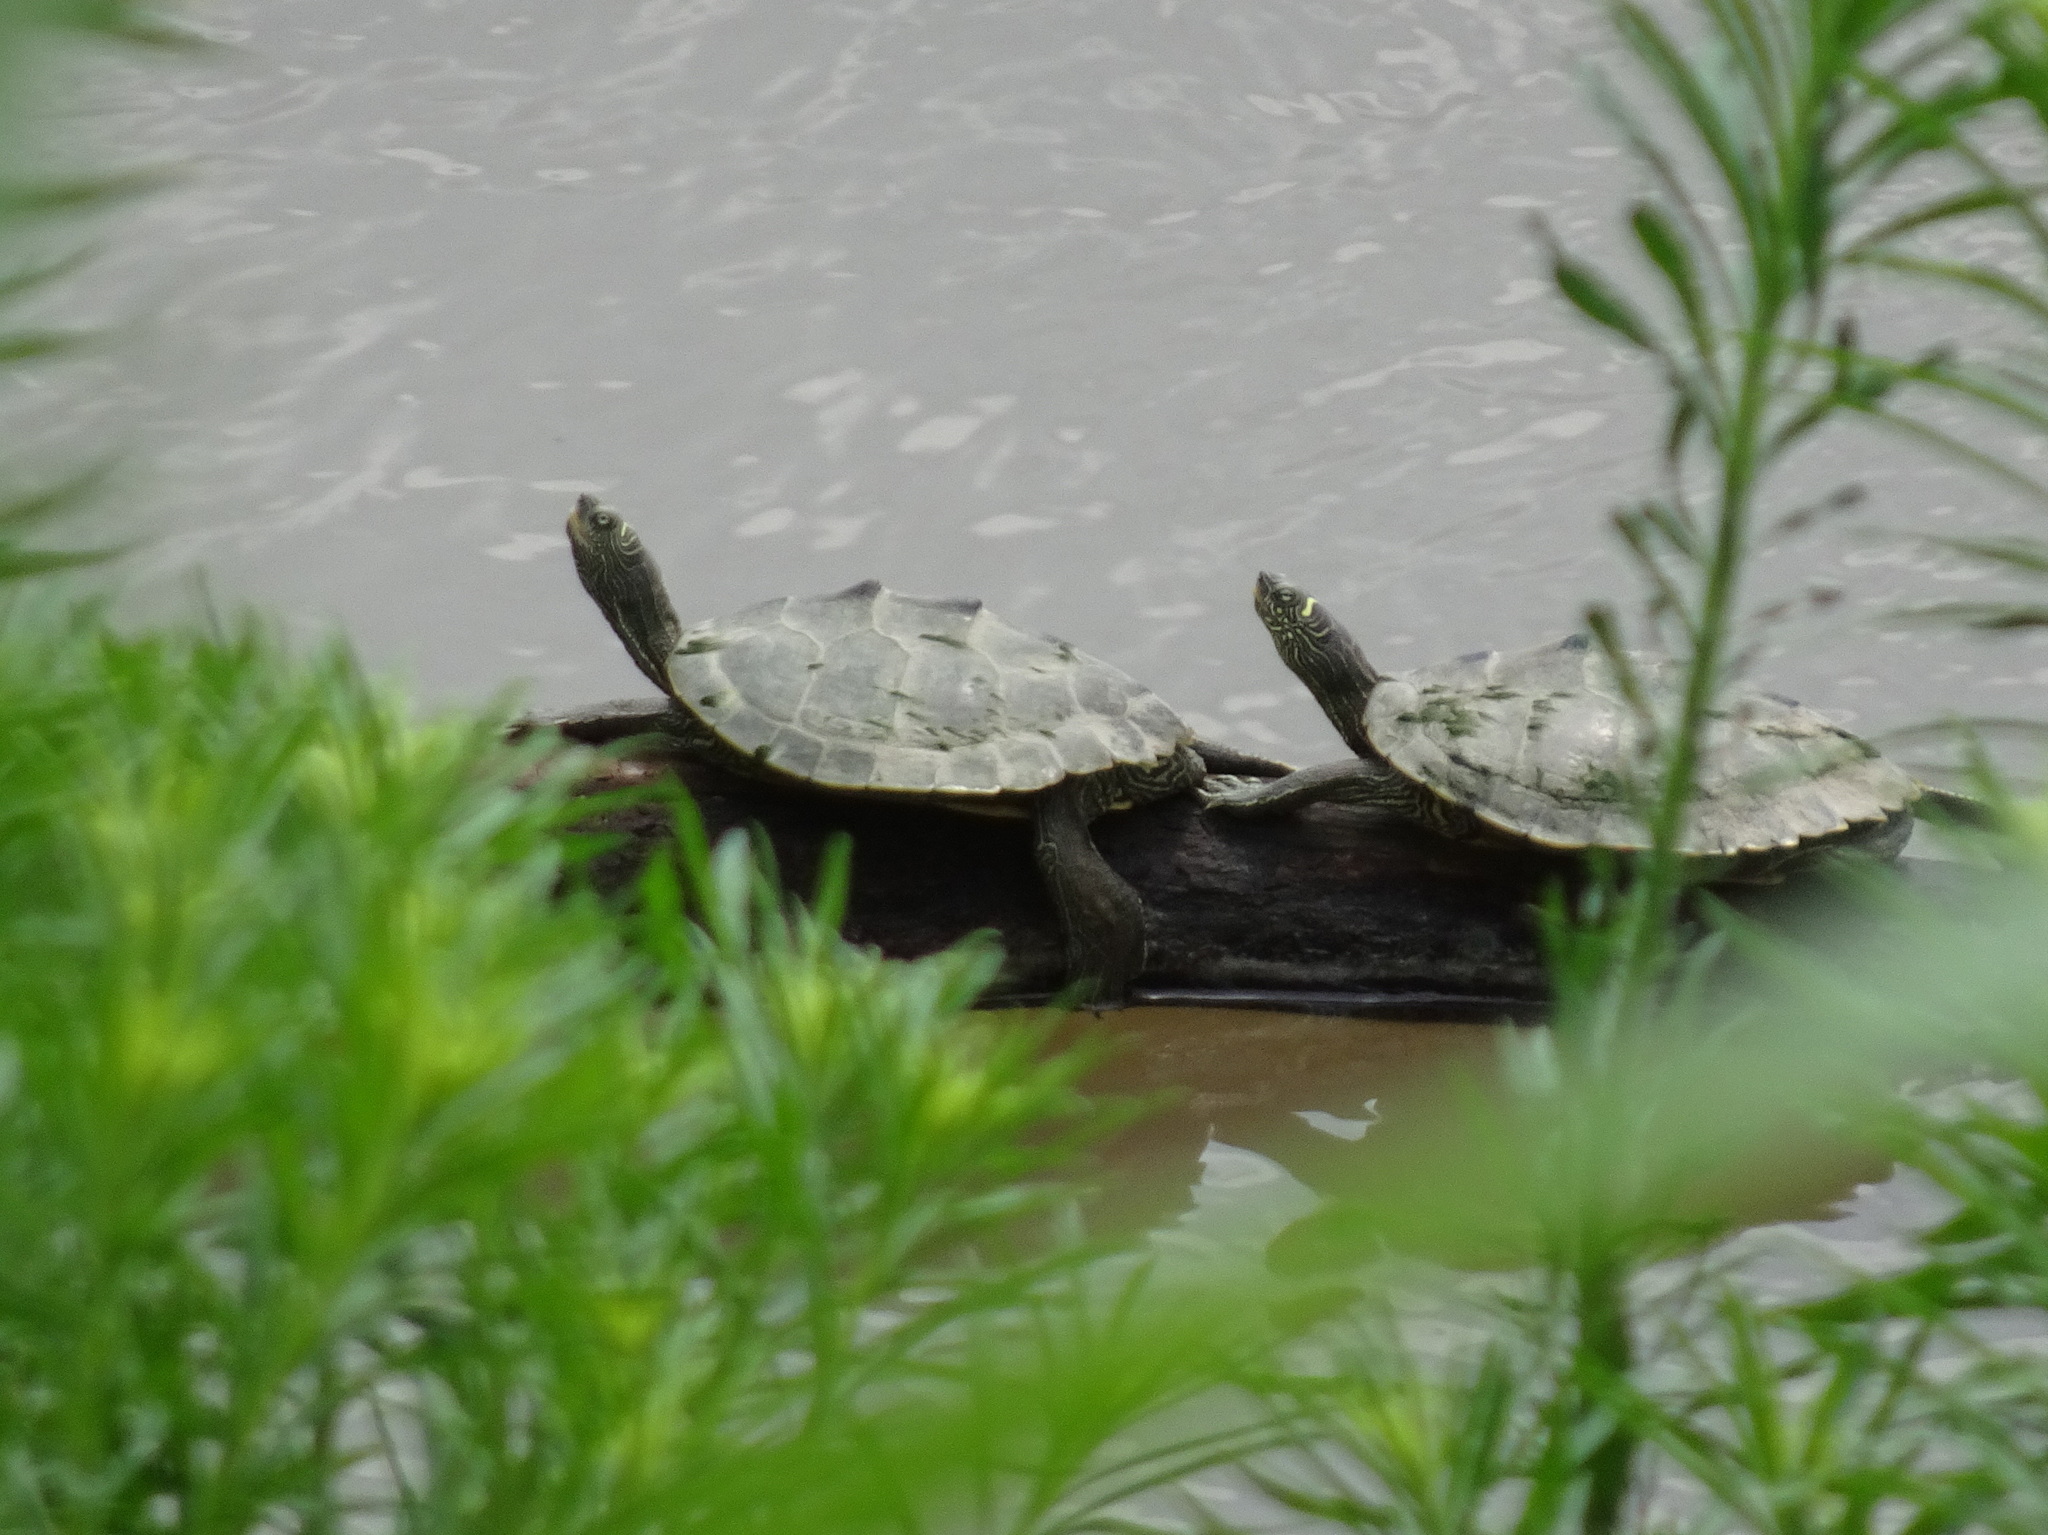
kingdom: Animalia
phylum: Chordata
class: Testudines
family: Emydidae
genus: Graptemys
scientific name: Graptemys pseudogeographica
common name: False map turtle
